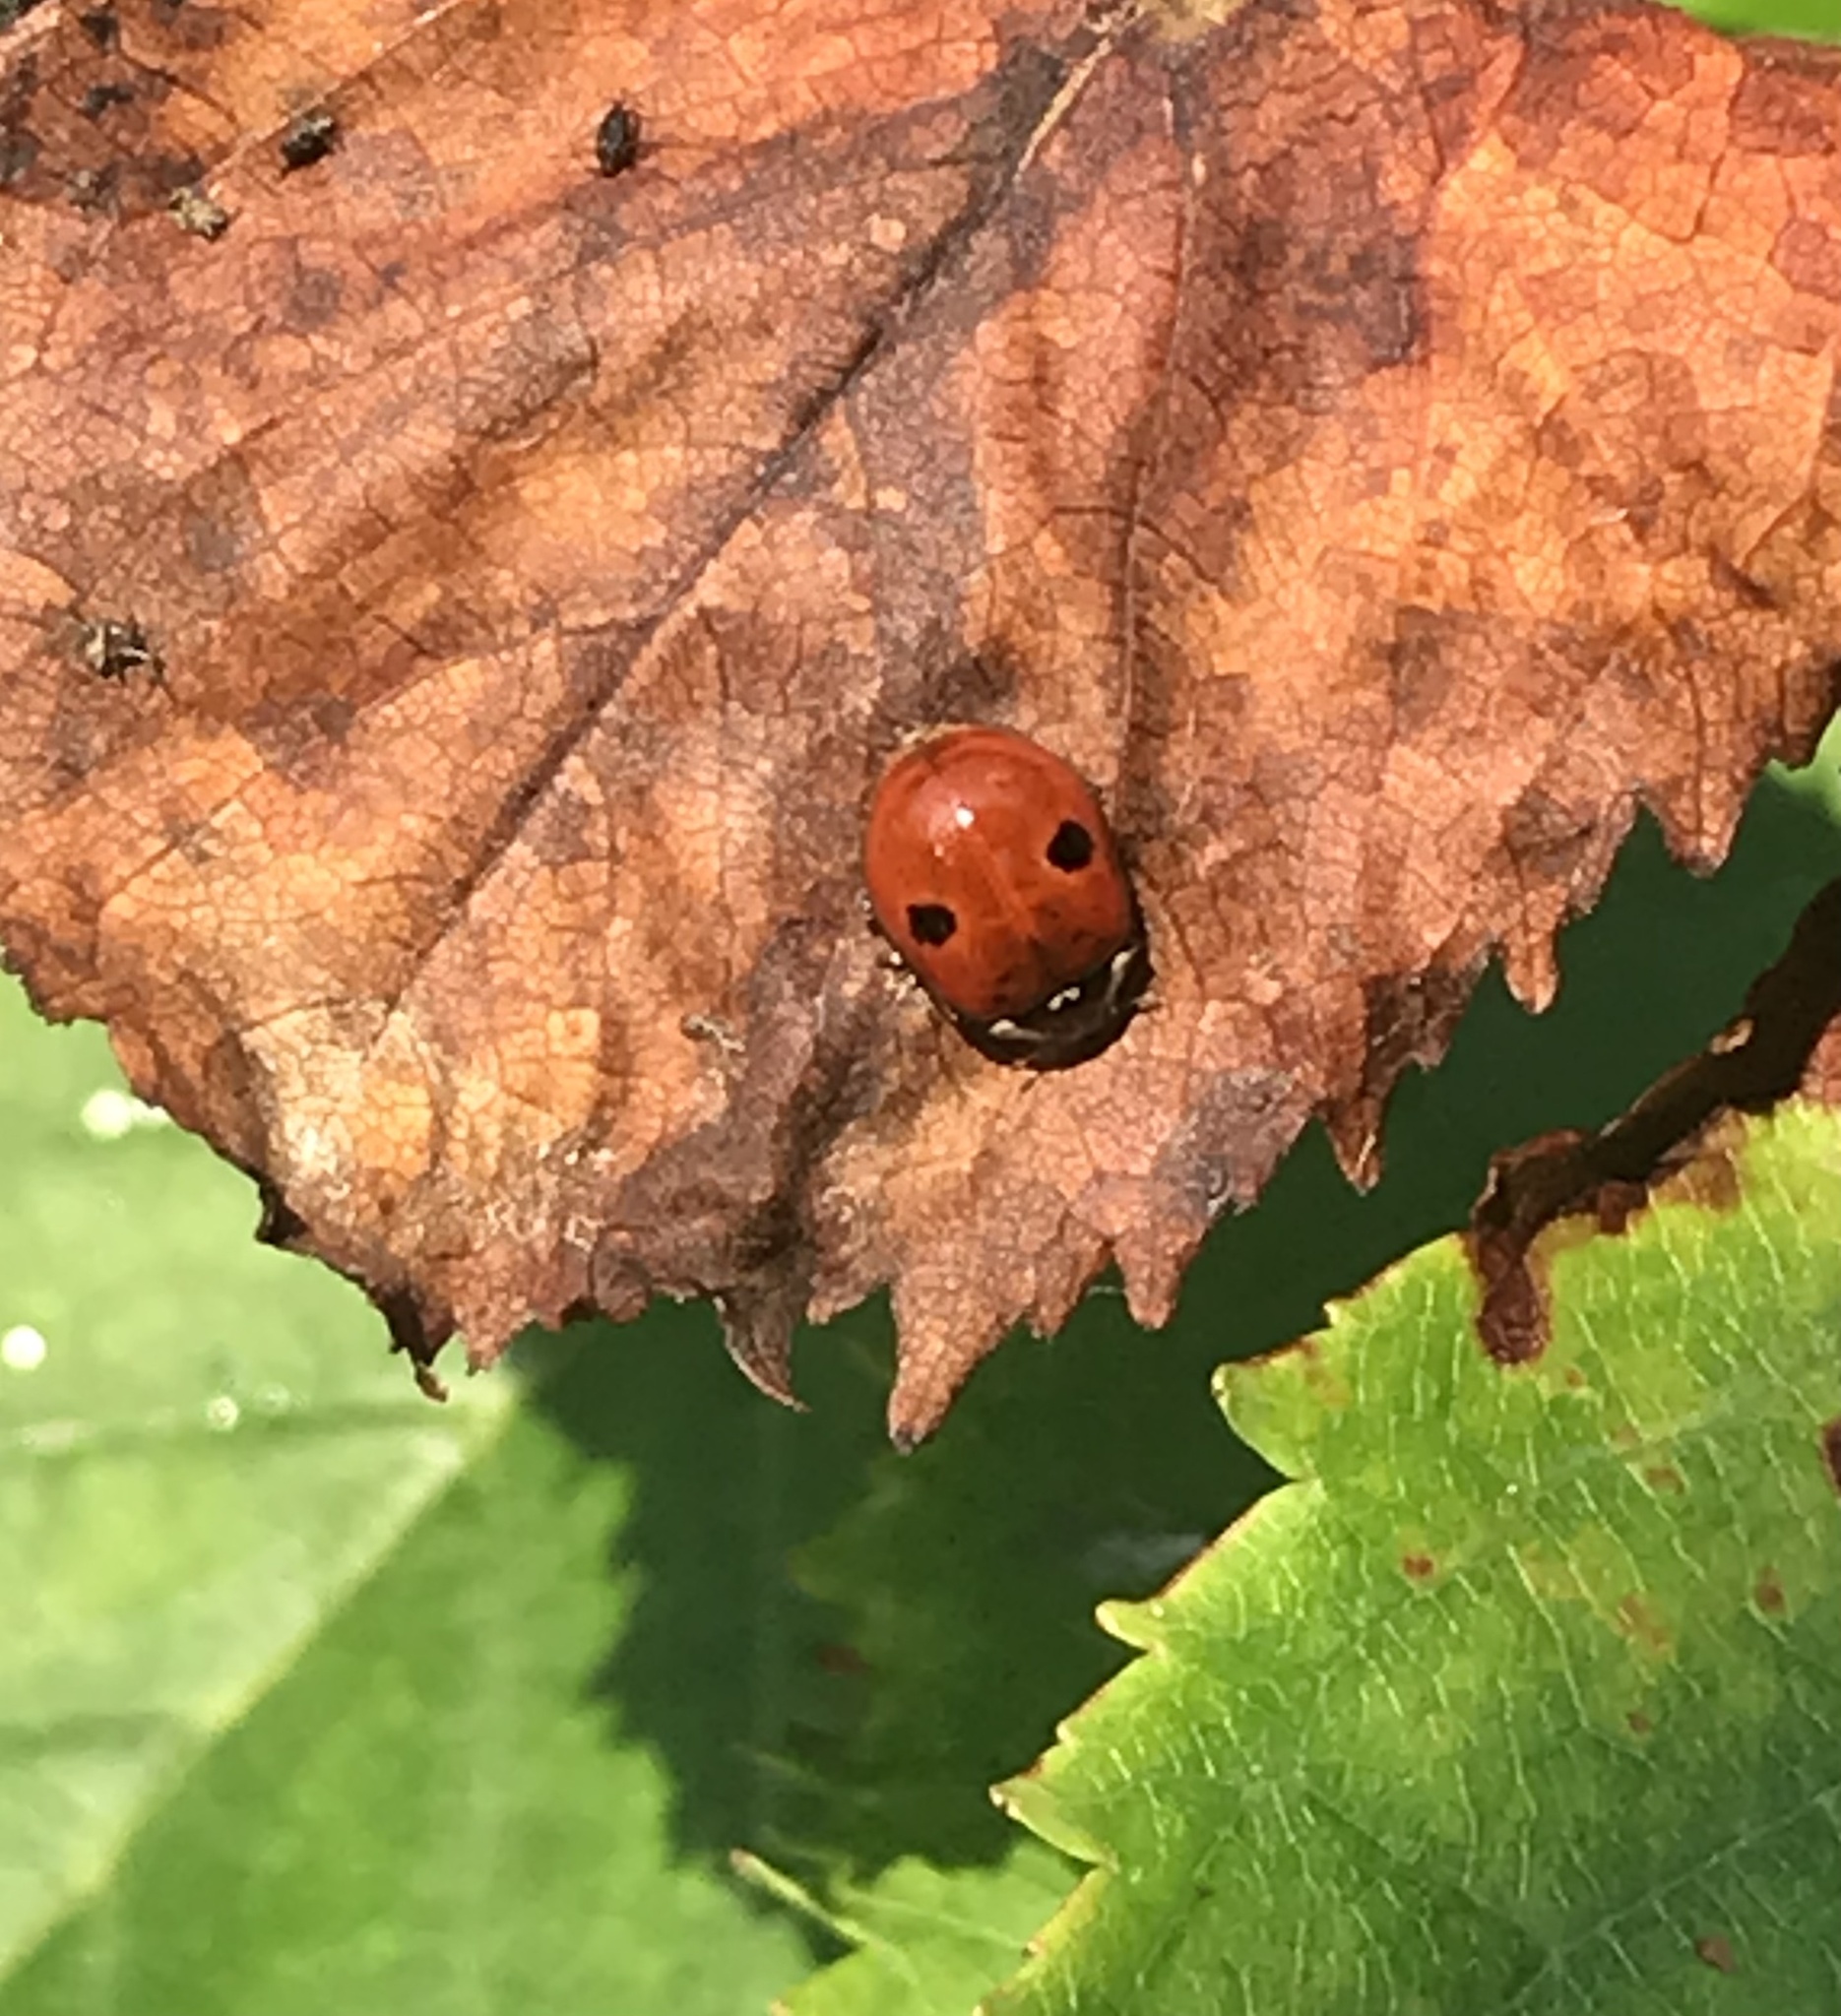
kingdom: Animalia
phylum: Arthropoda
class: Insecta
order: Coleoptera
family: Coccinellidae
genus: Adalia
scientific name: Adalia bipunctata
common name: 2-spot ladybird
